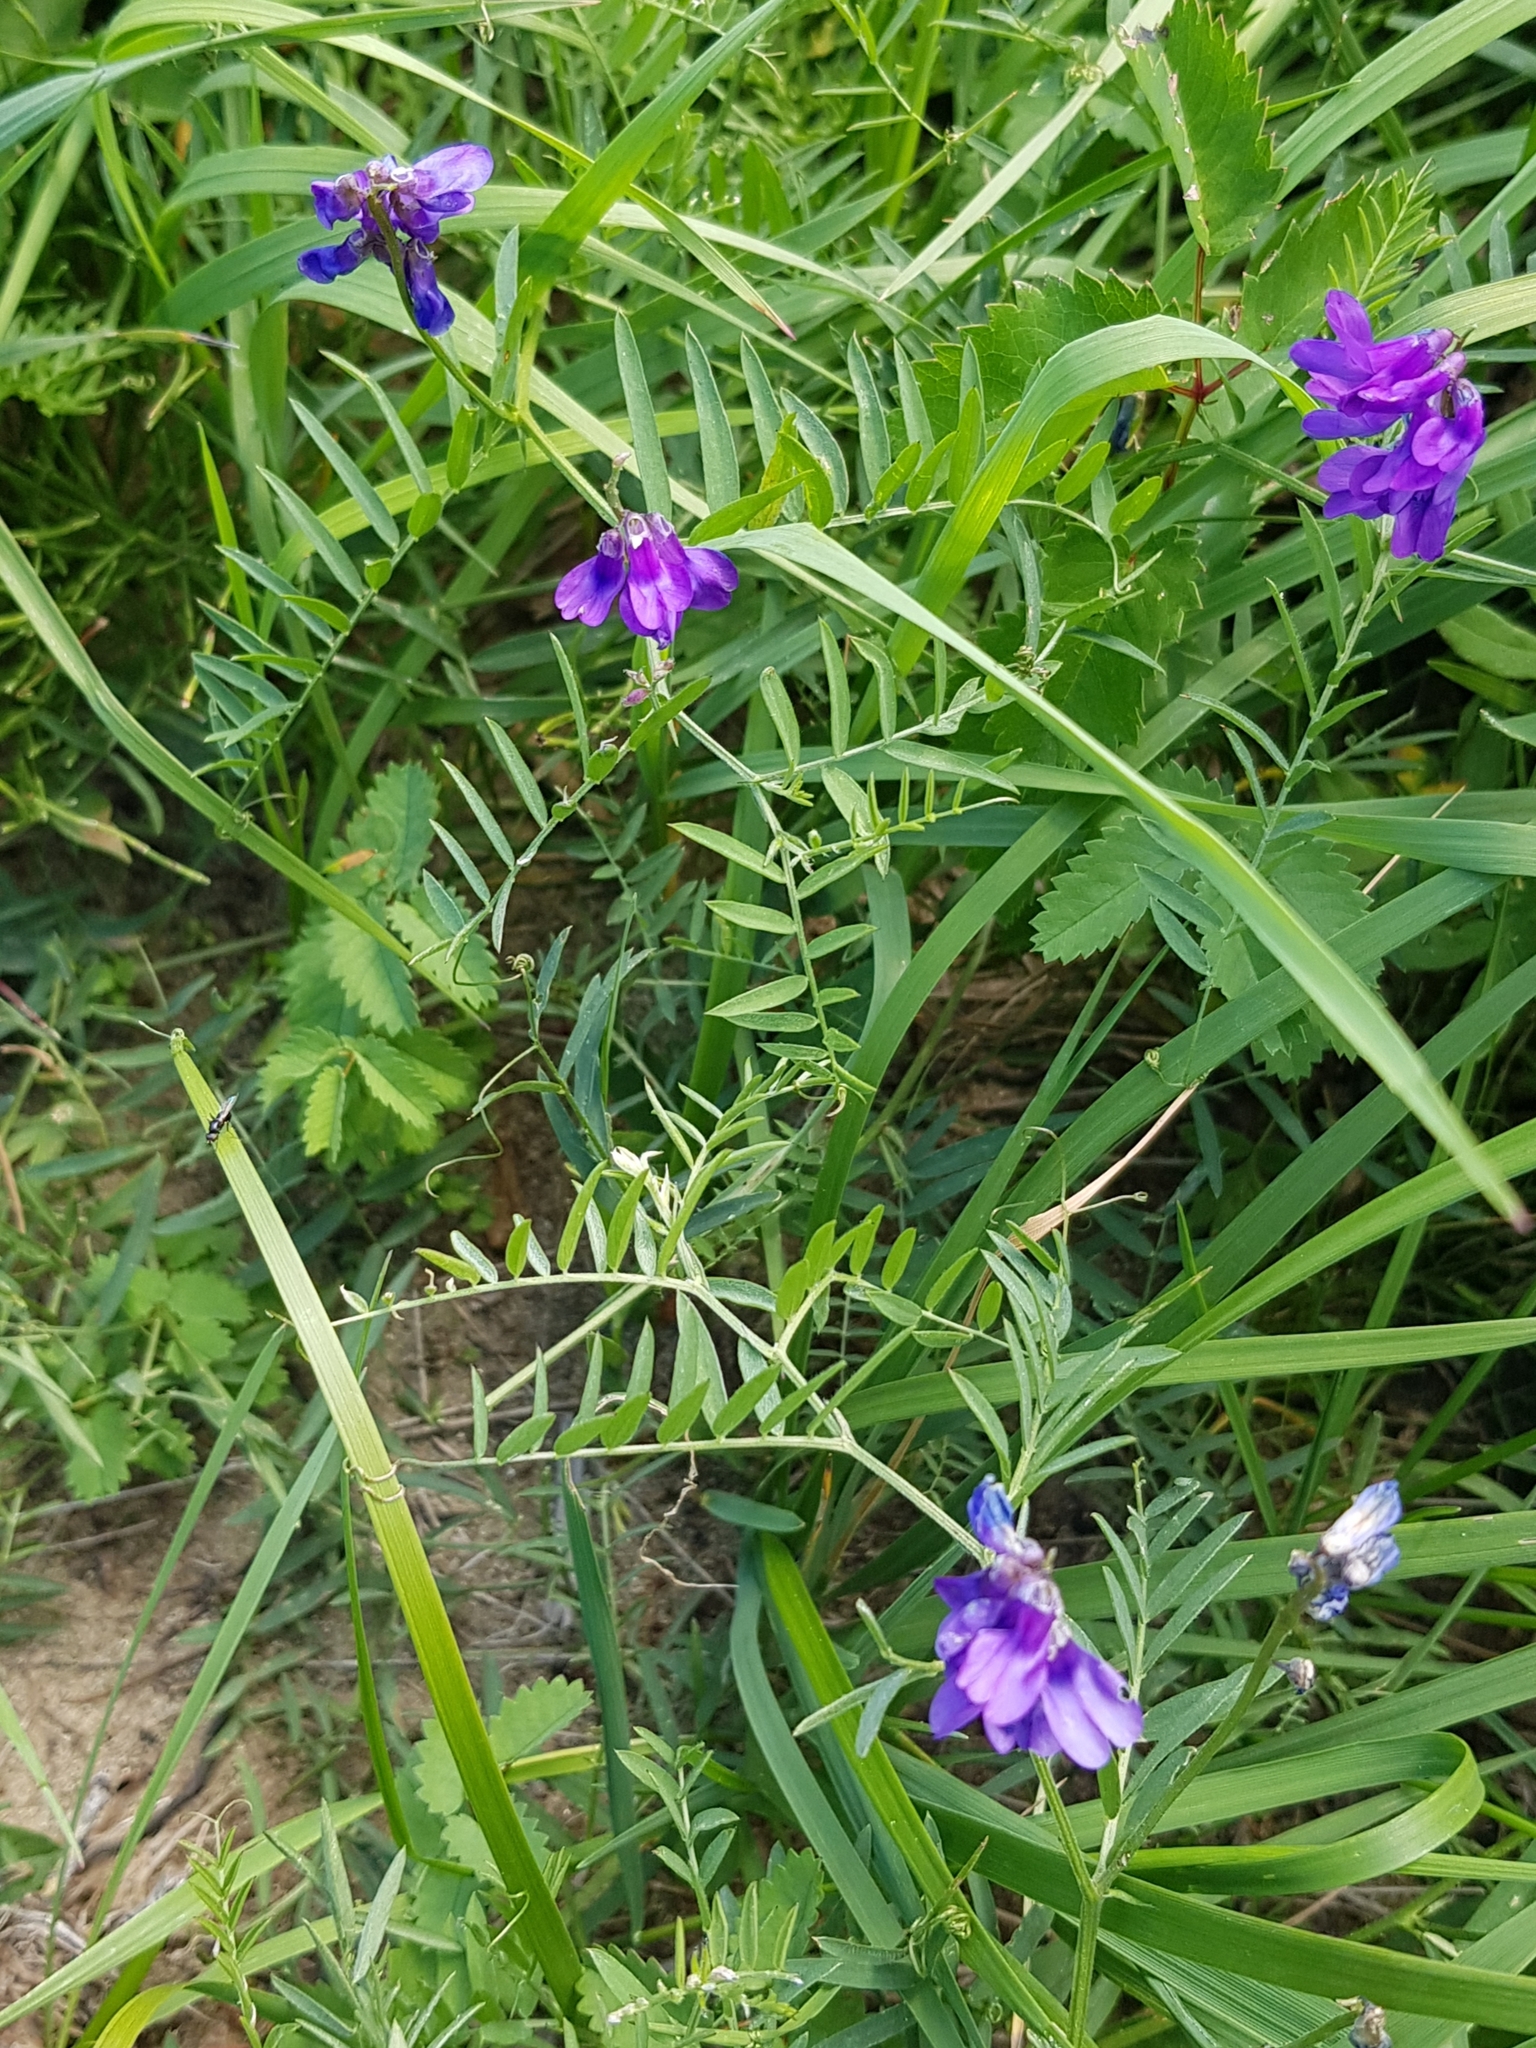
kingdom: Plantae
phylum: Tracheophyta
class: Magnoliopsida
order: Fabales
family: Fabaceae
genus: Vicia
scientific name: Vicia amoena
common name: Cheder ebs
